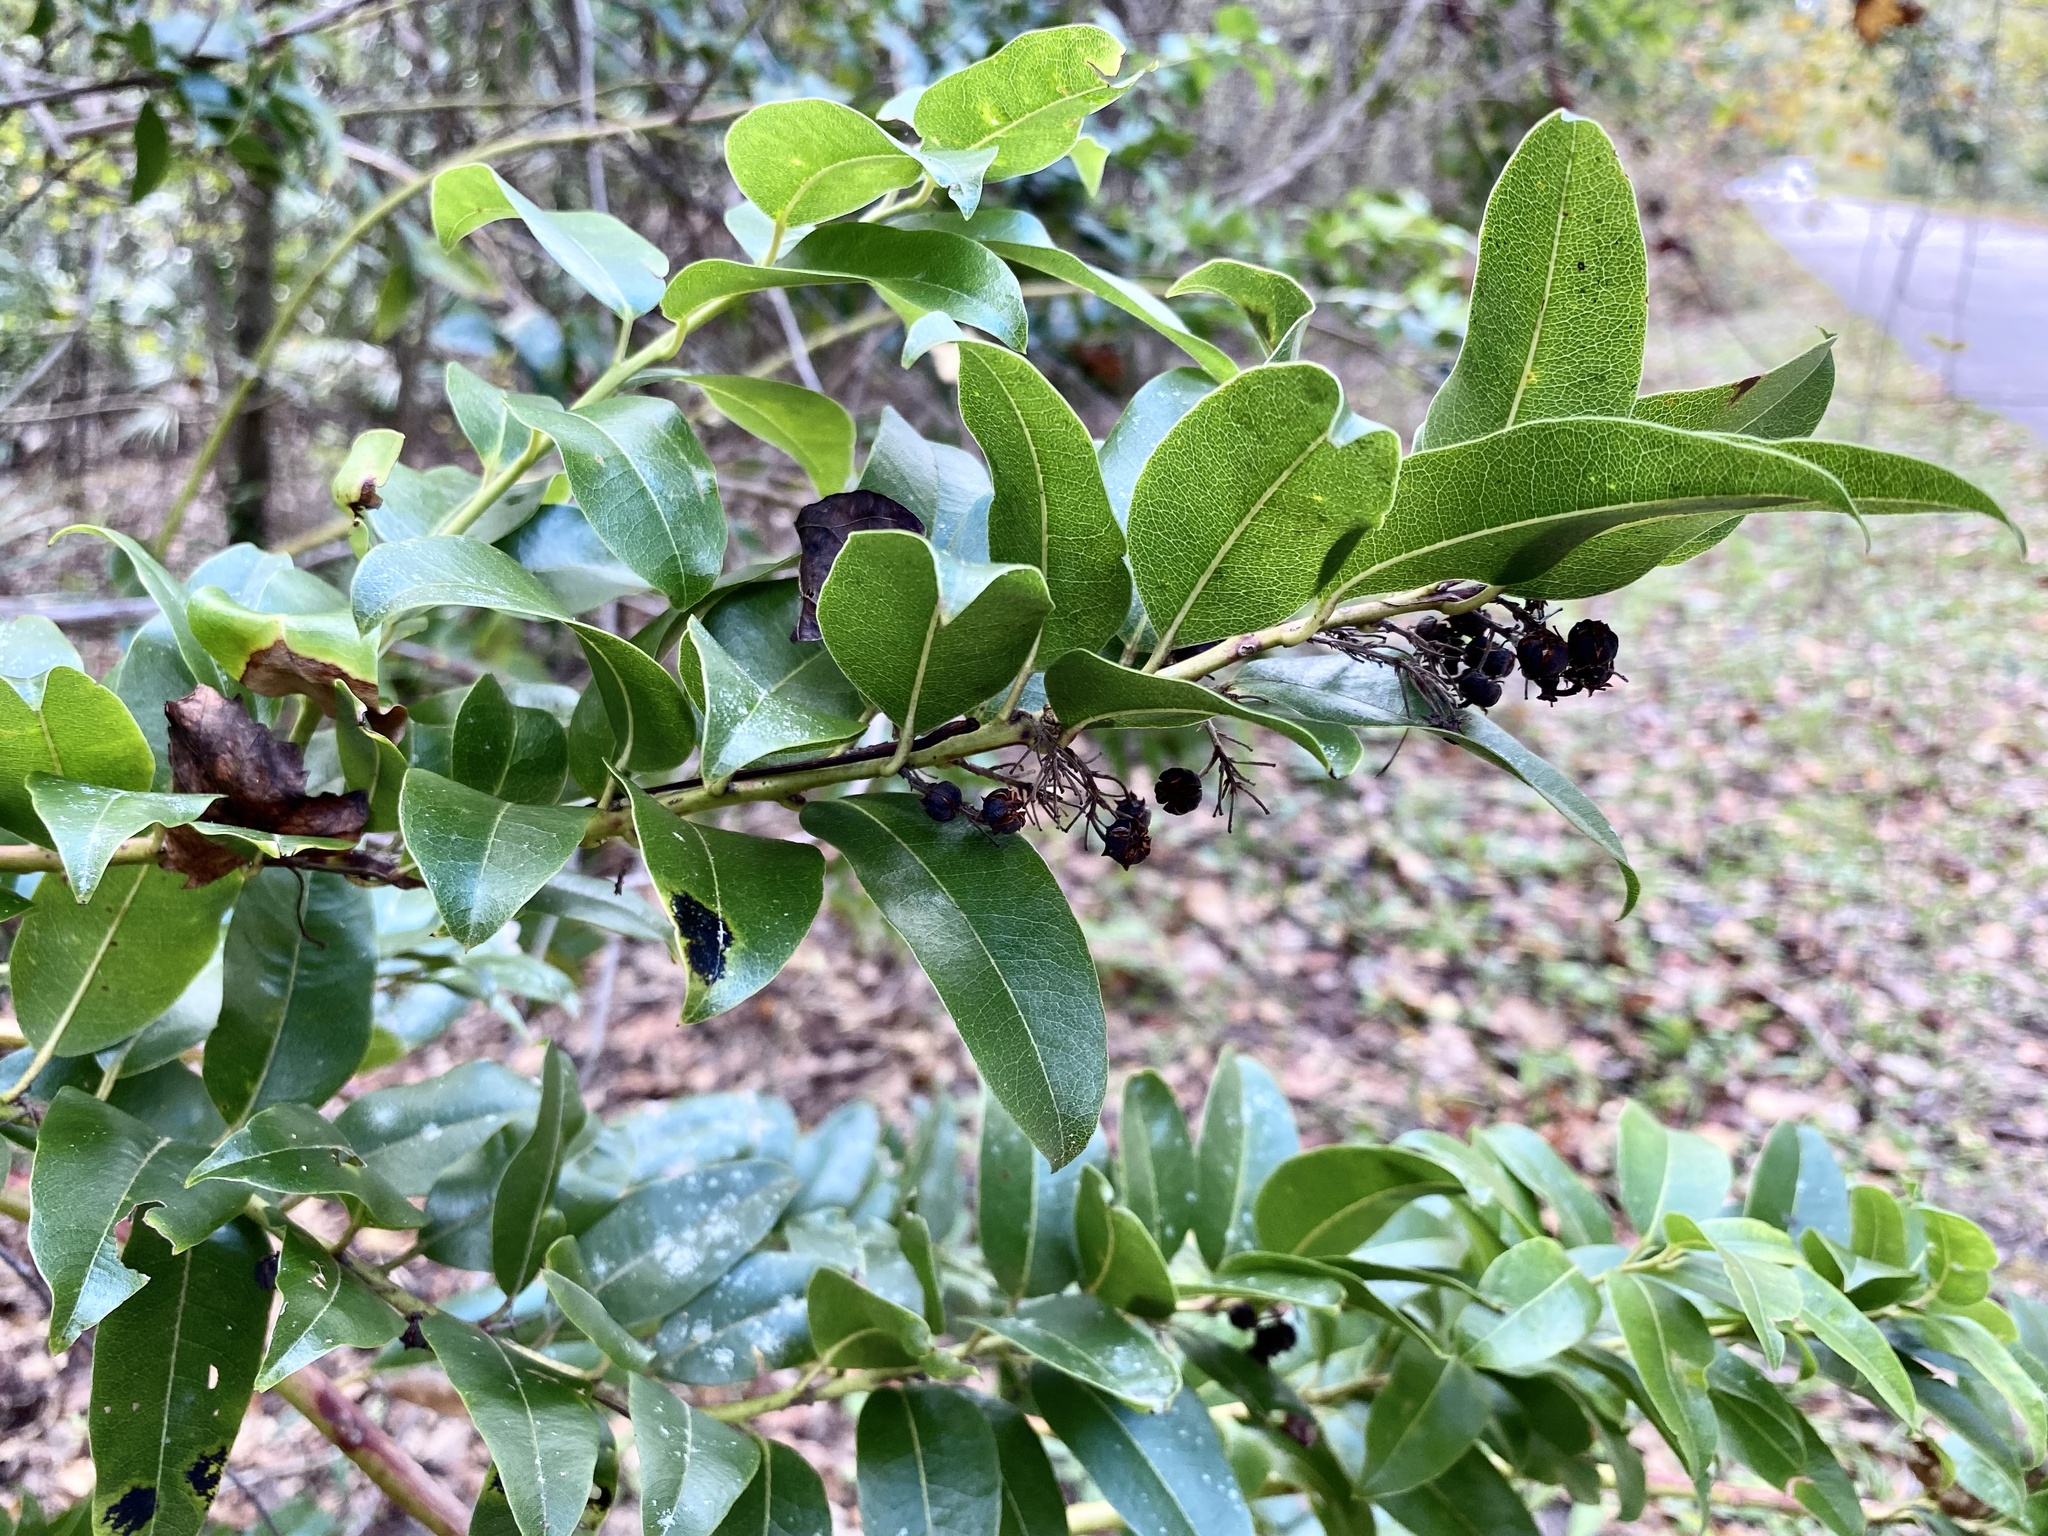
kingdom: Plantae
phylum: Tracheophyta
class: Magnoliopsida
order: Ericales
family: Ericaceae
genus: Agarista
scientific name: Agarista populifolia
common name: Pipeplant
